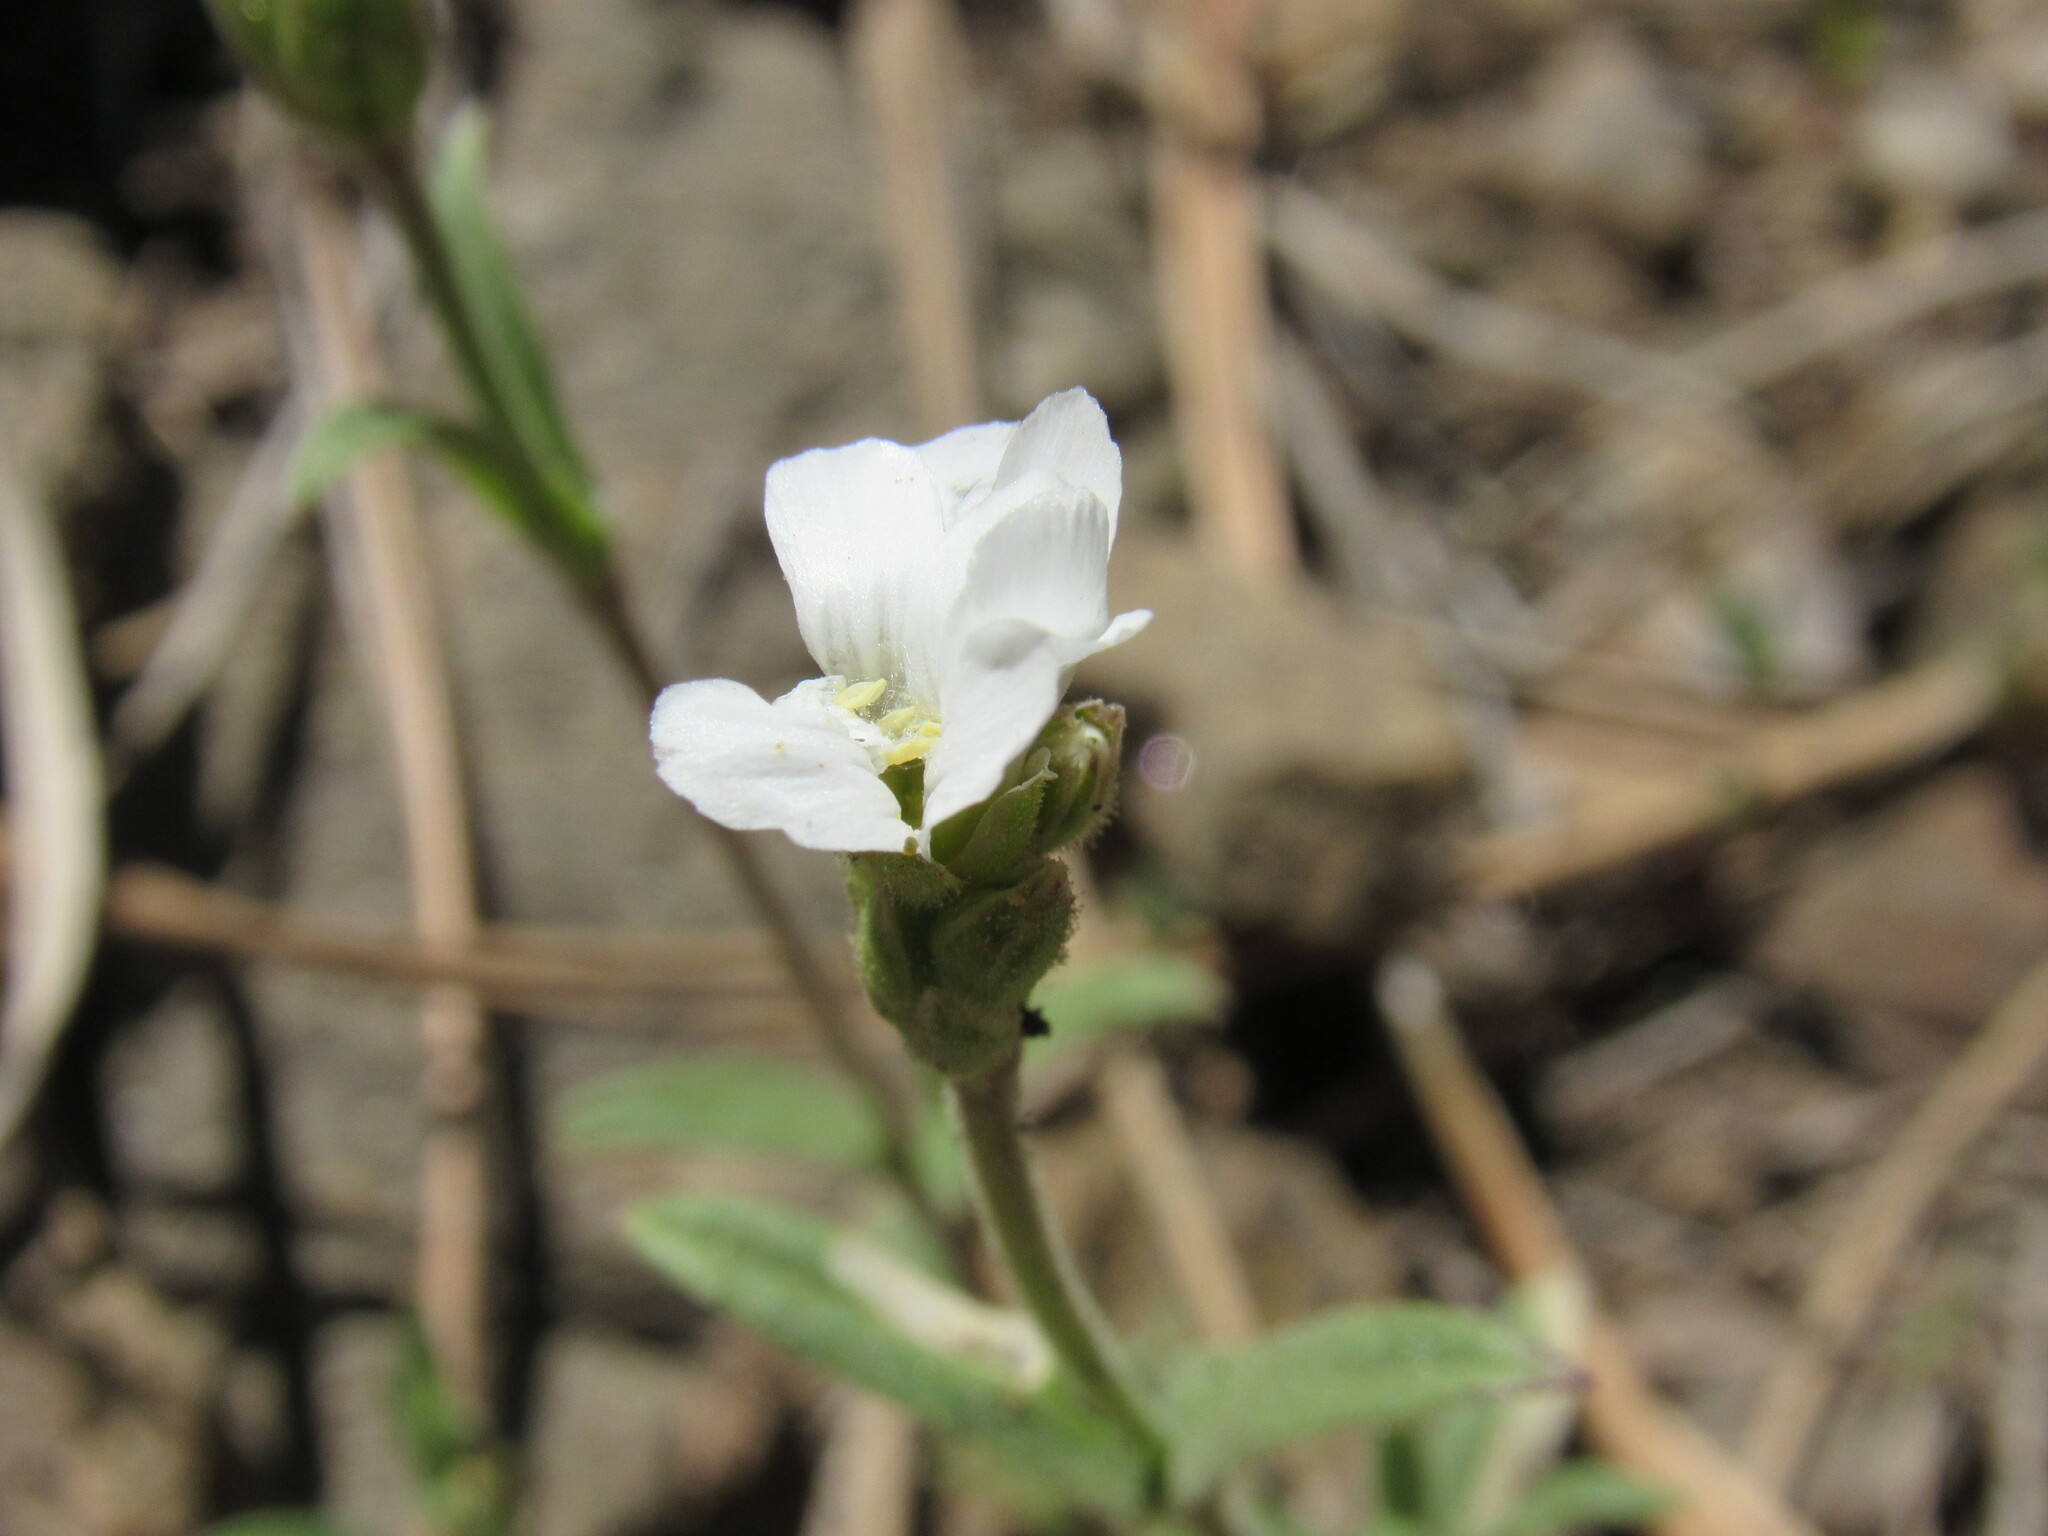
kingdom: Plantae
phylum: Tracheophyta
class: Magnoliopsida
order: Caryophyllales
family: Caryophyllaceae
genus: Cerastium
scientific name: Cerastium arvense
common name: Field mouse-ear
